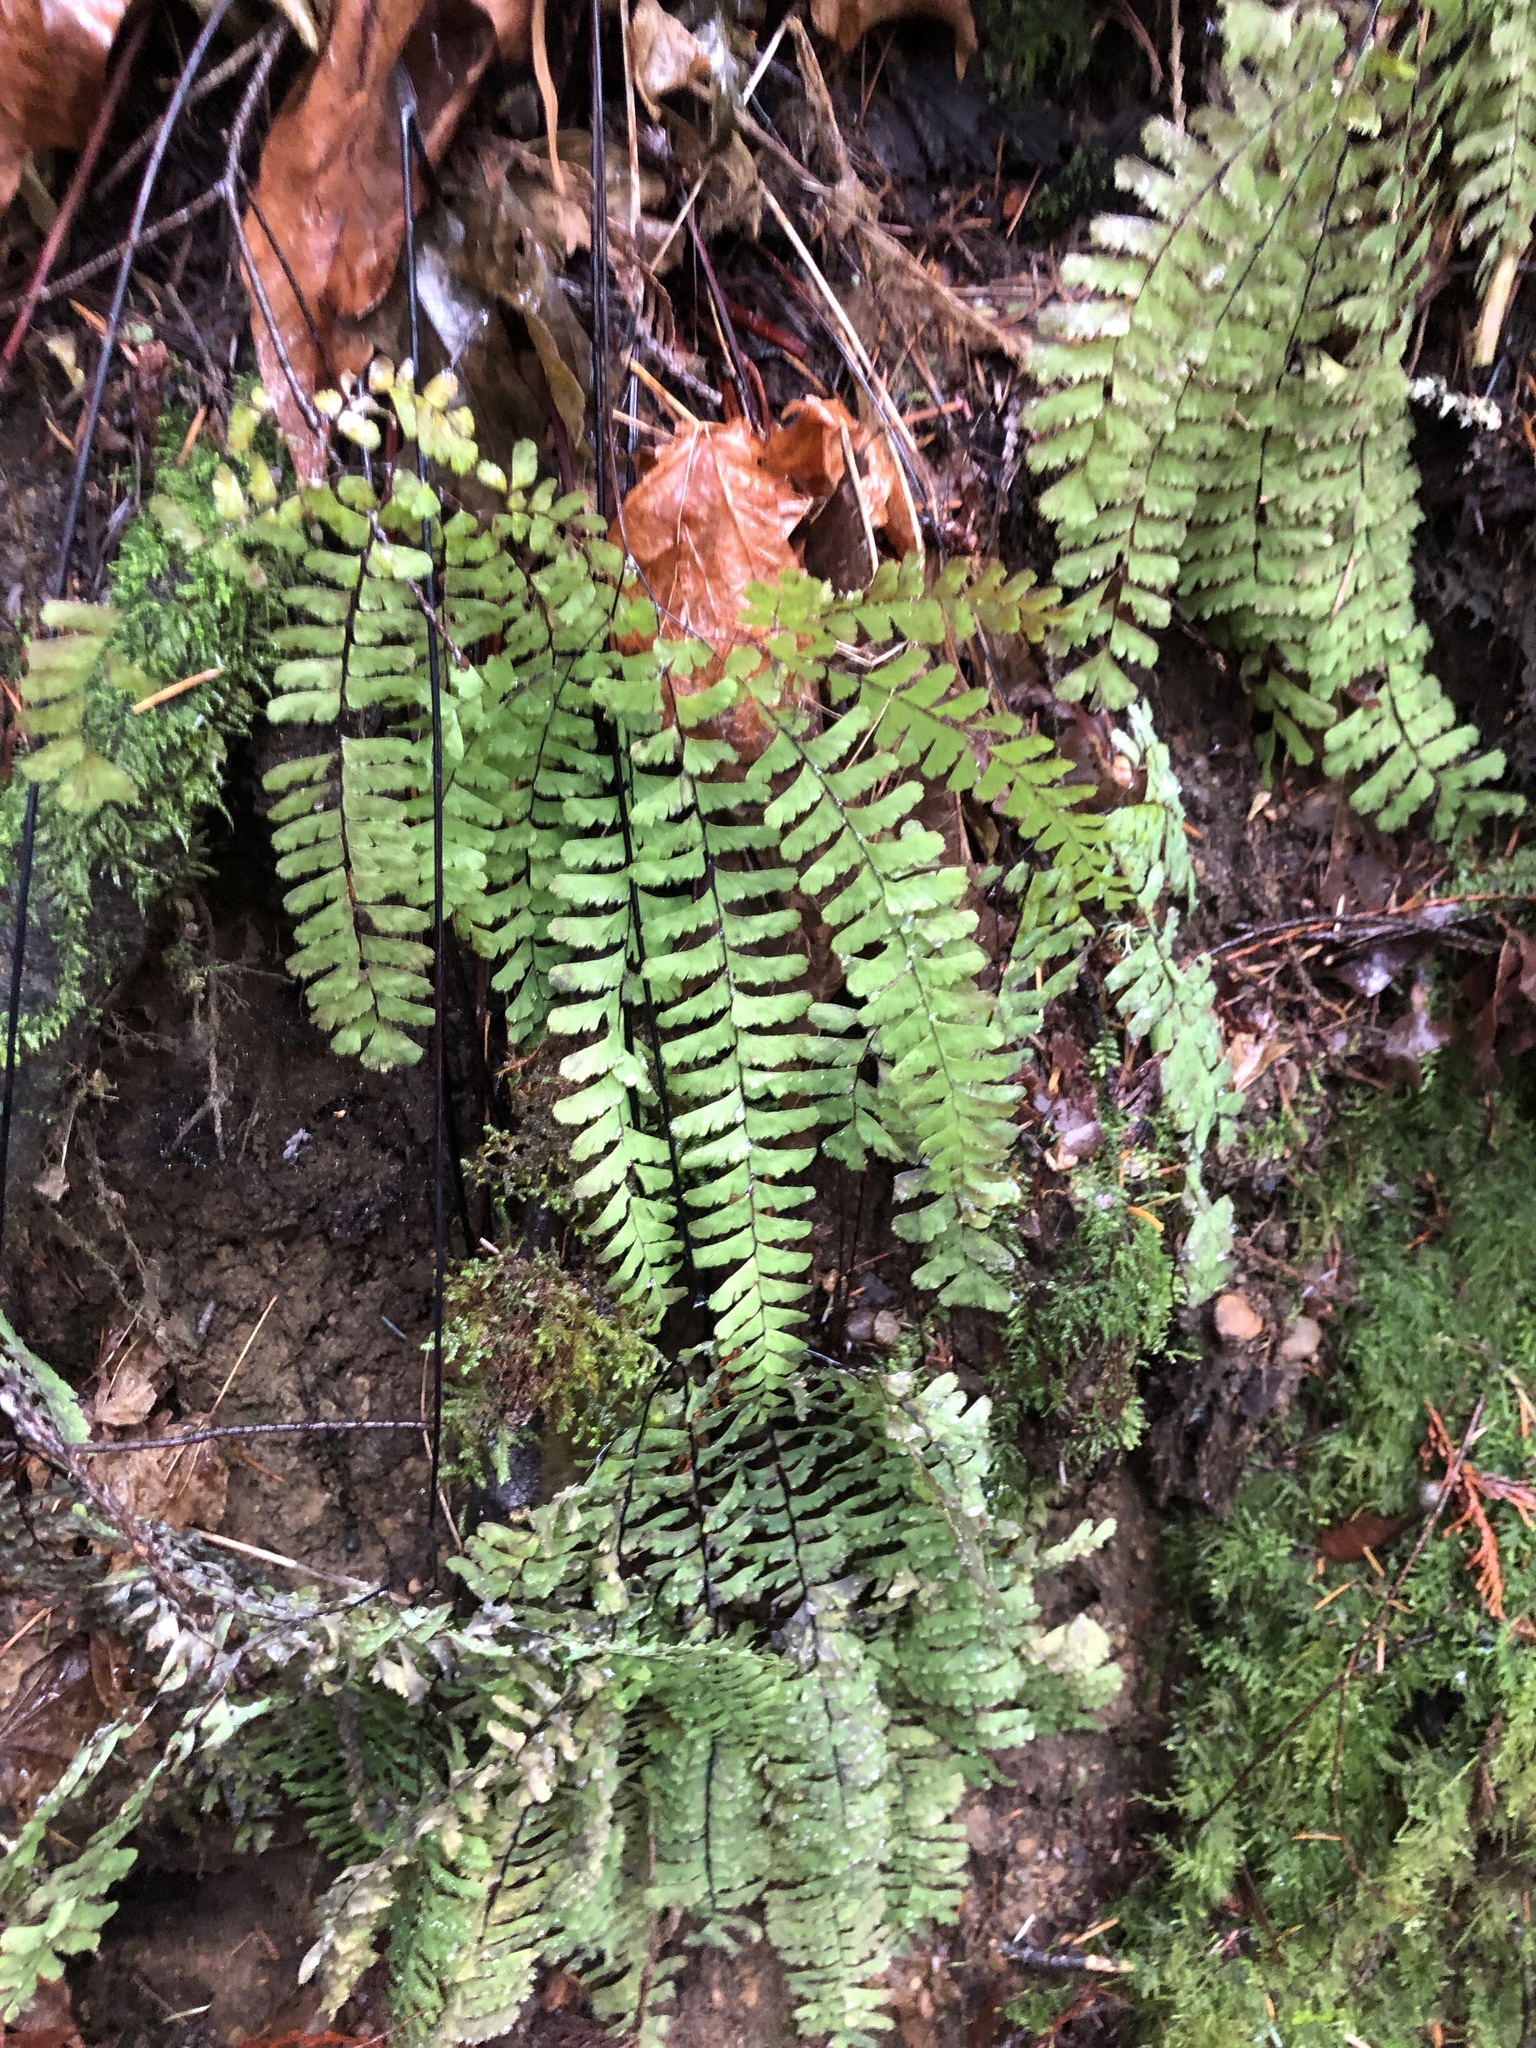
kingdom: Plantae
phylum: Tracheophyta
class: Polypodiopsida
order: Polypodiales
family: Pteridaceae
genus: Adiantum
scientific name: Adiantum aleuticum
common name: Aleutian maidenhair fern
